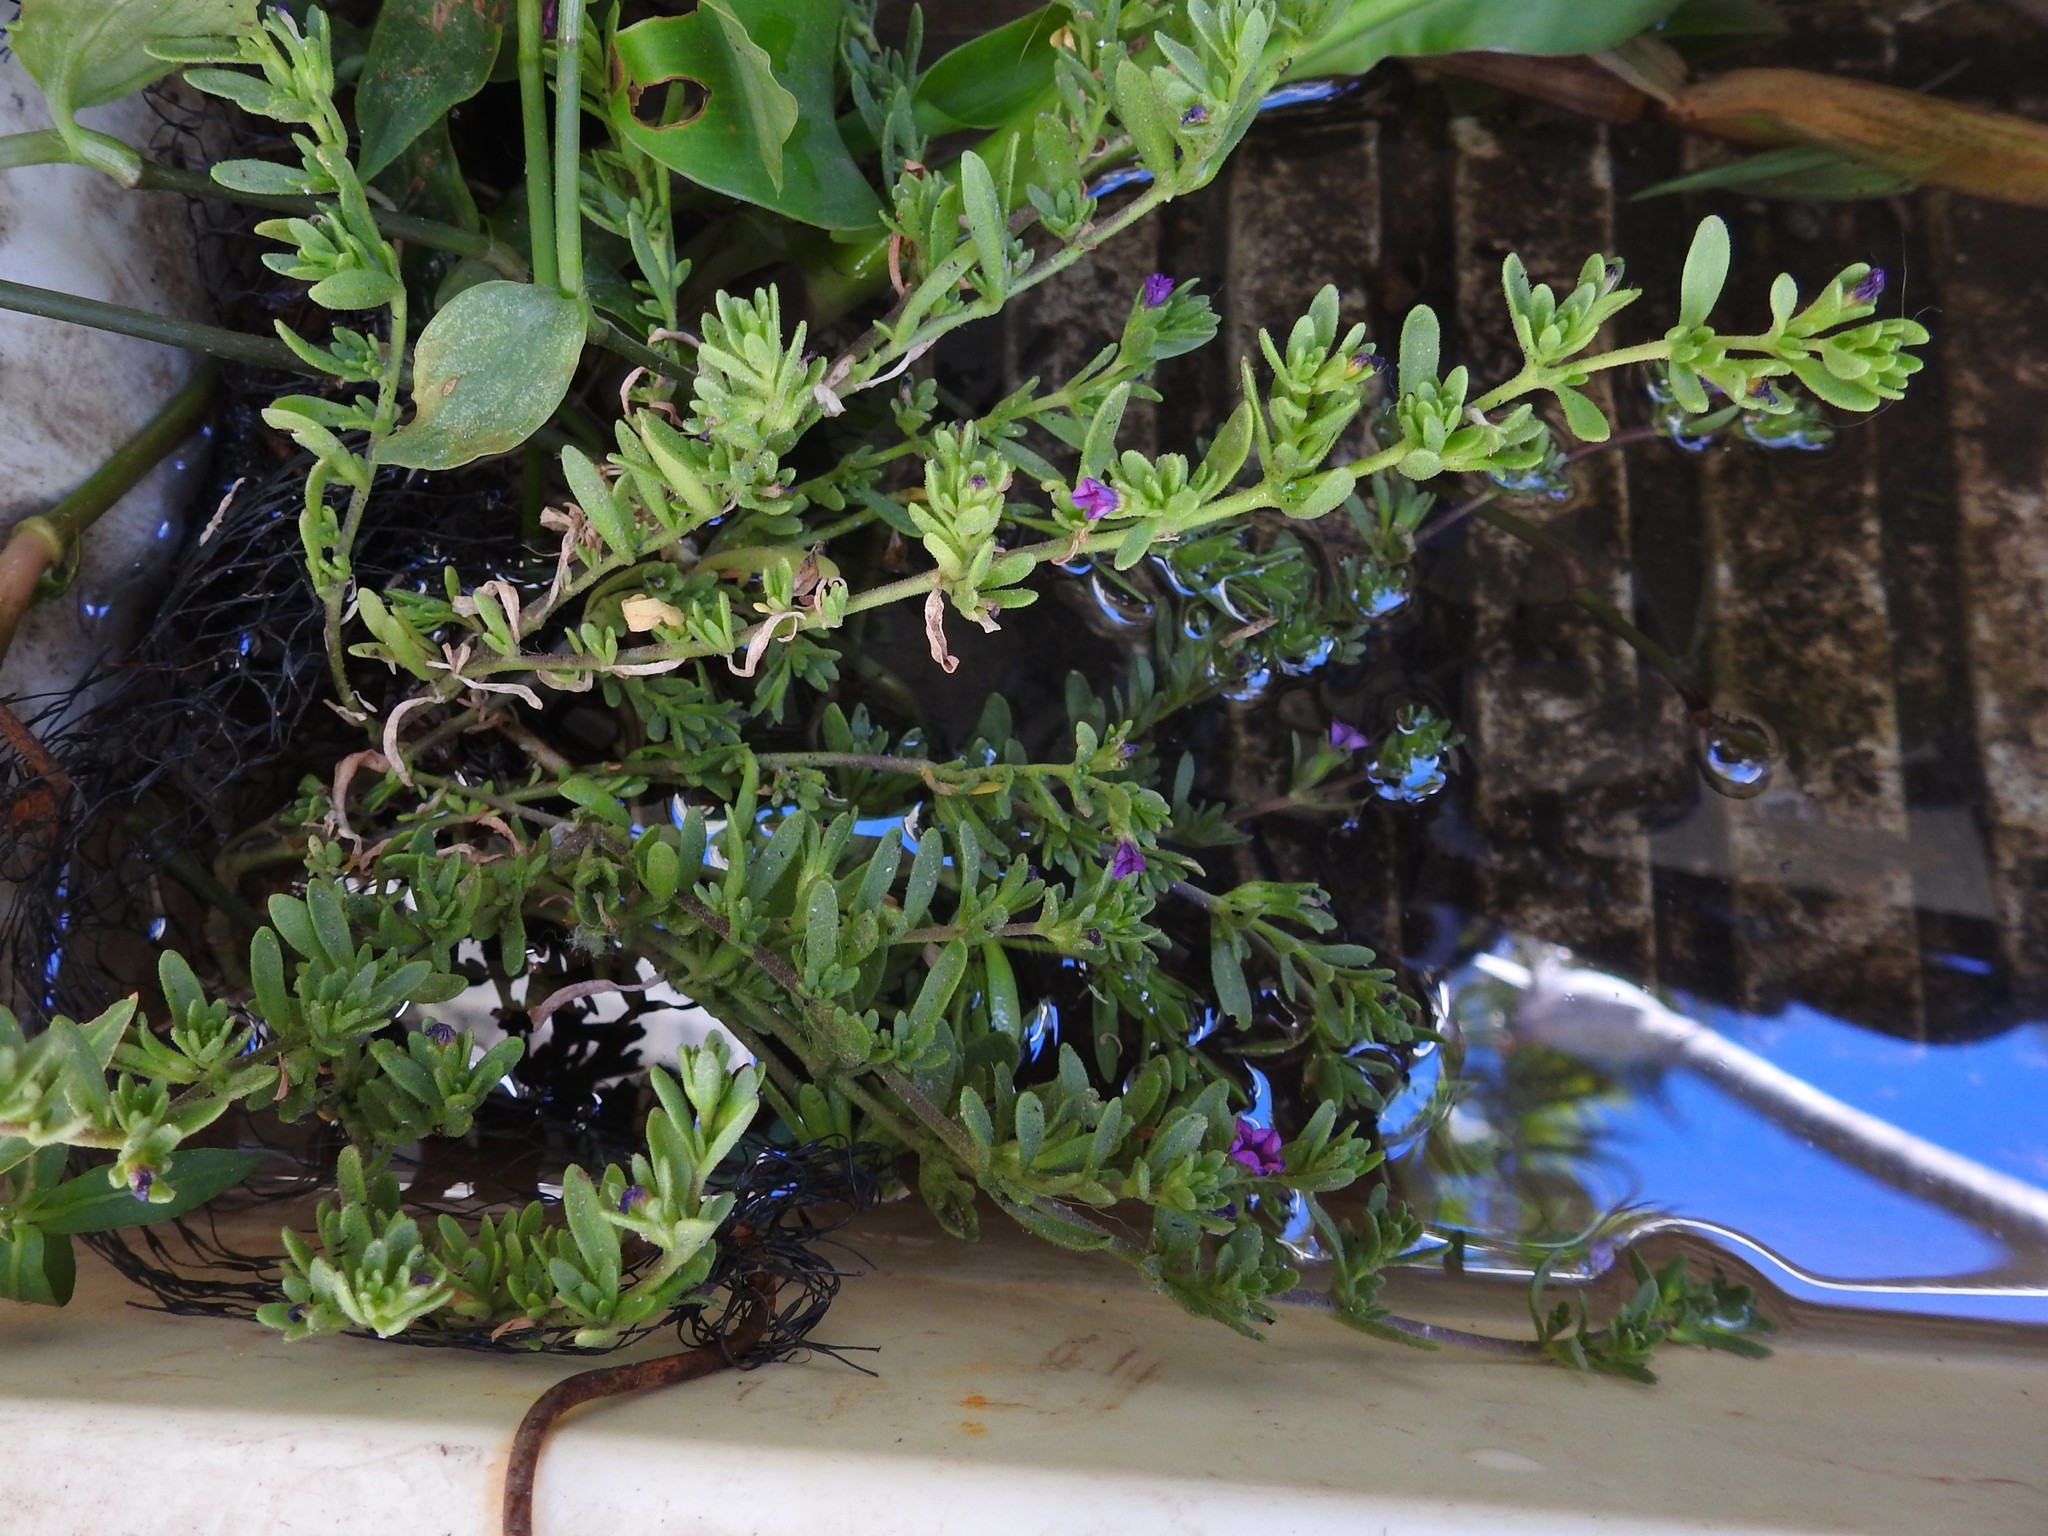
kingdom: Plantae
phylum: Tracheophyta
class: Magnoliopsida
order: Solanales
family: Solanaceae
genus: Calibrachoa
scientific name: Calibrachoa parviflora
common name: Seaside petunia
